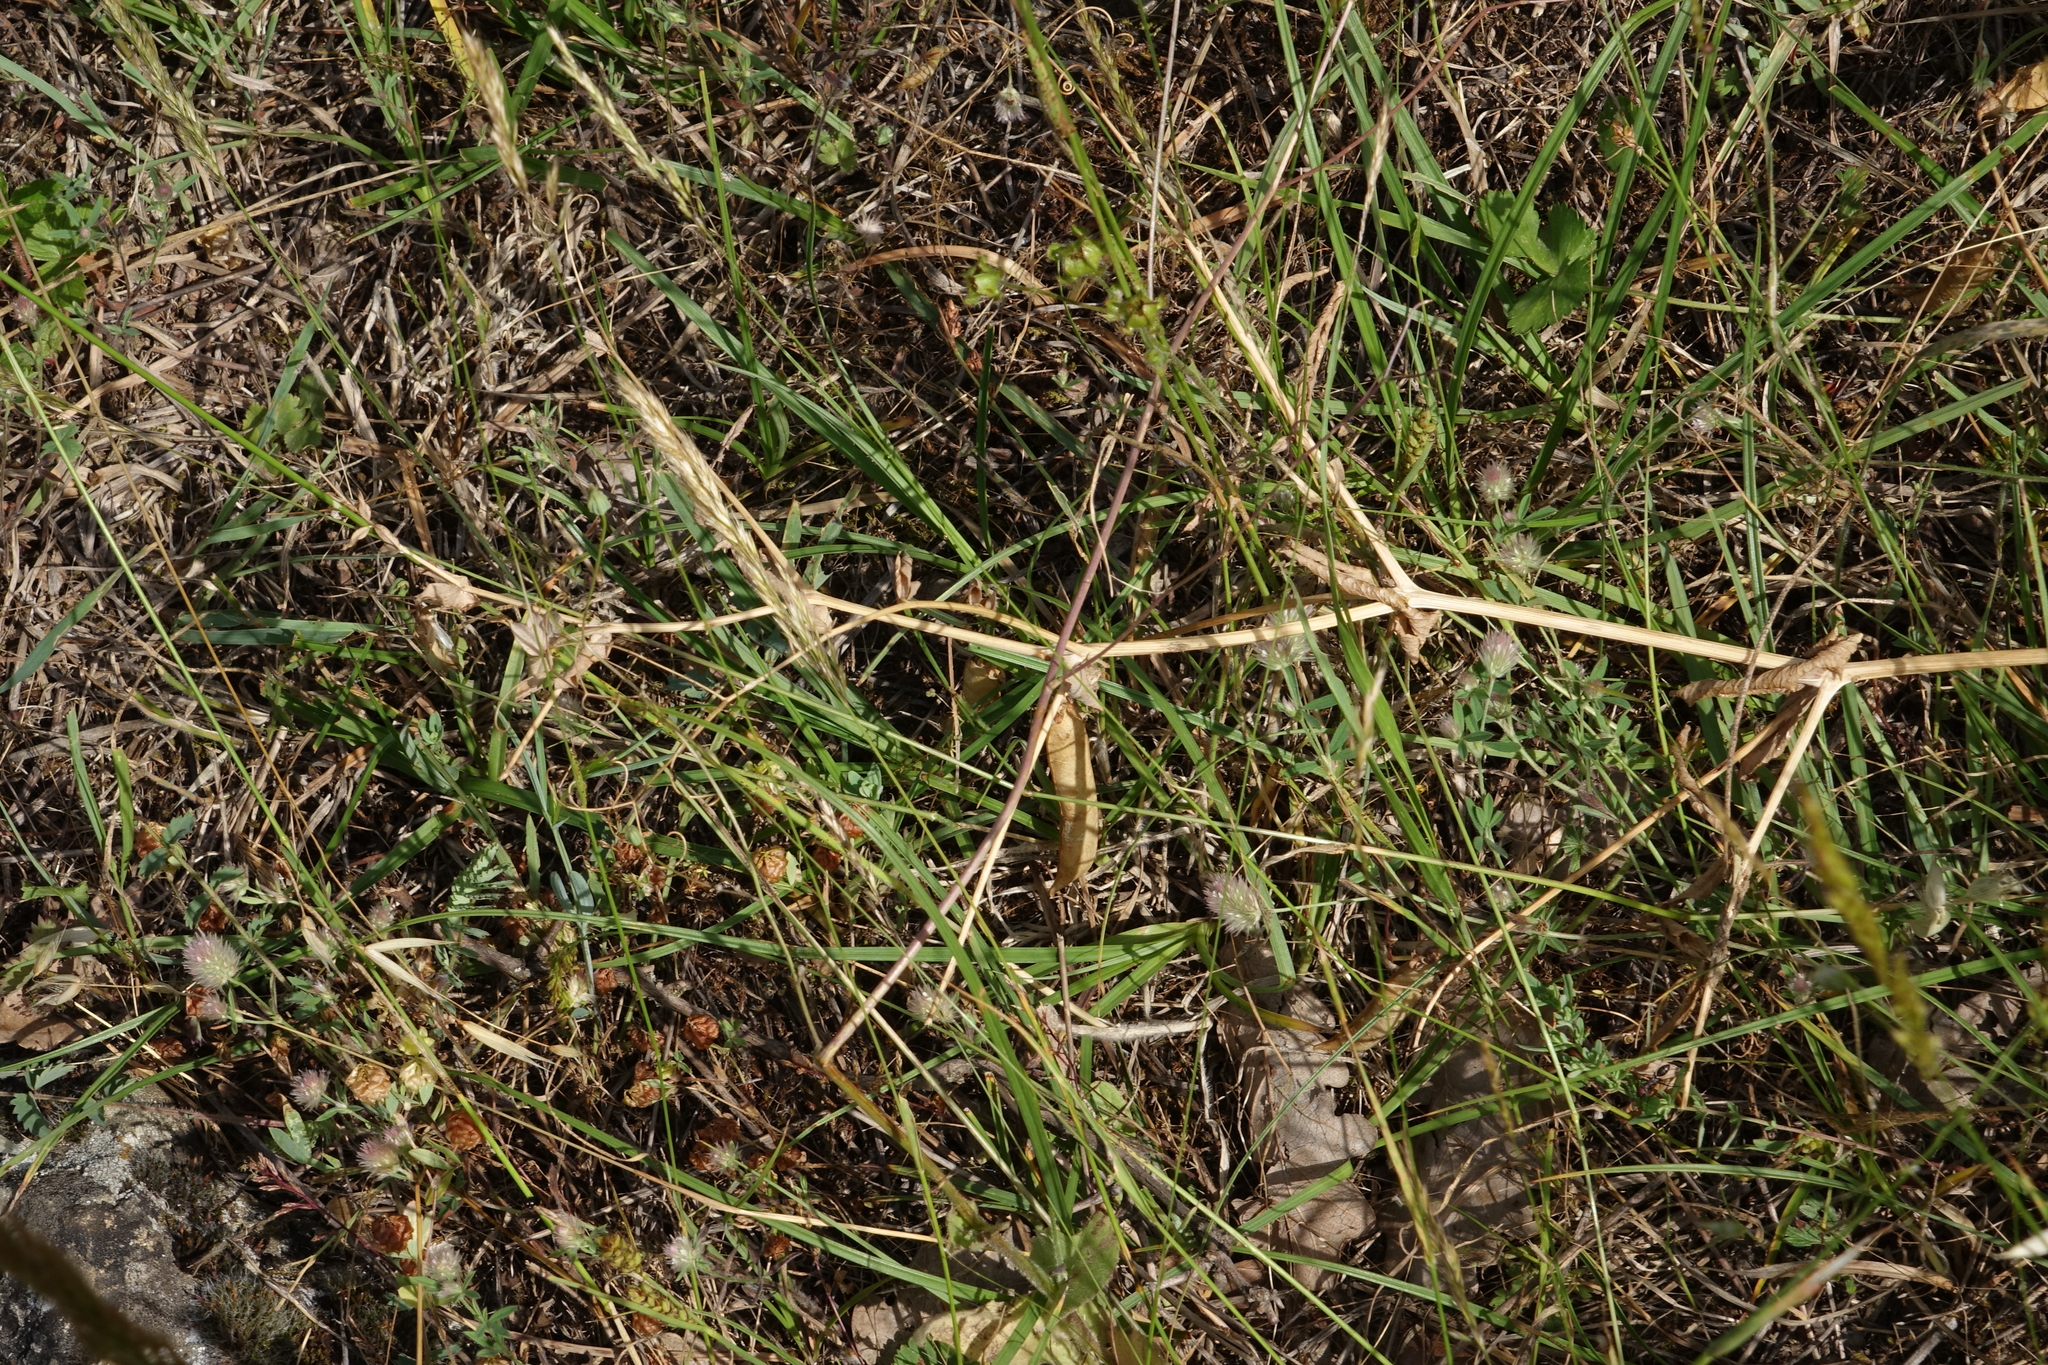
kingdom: Plantae
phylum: Tracheophyta
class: Magnoliopsida
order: Fabales
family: Fabaceae
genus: Lathyrus
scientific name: Lathyrus oleraceus
